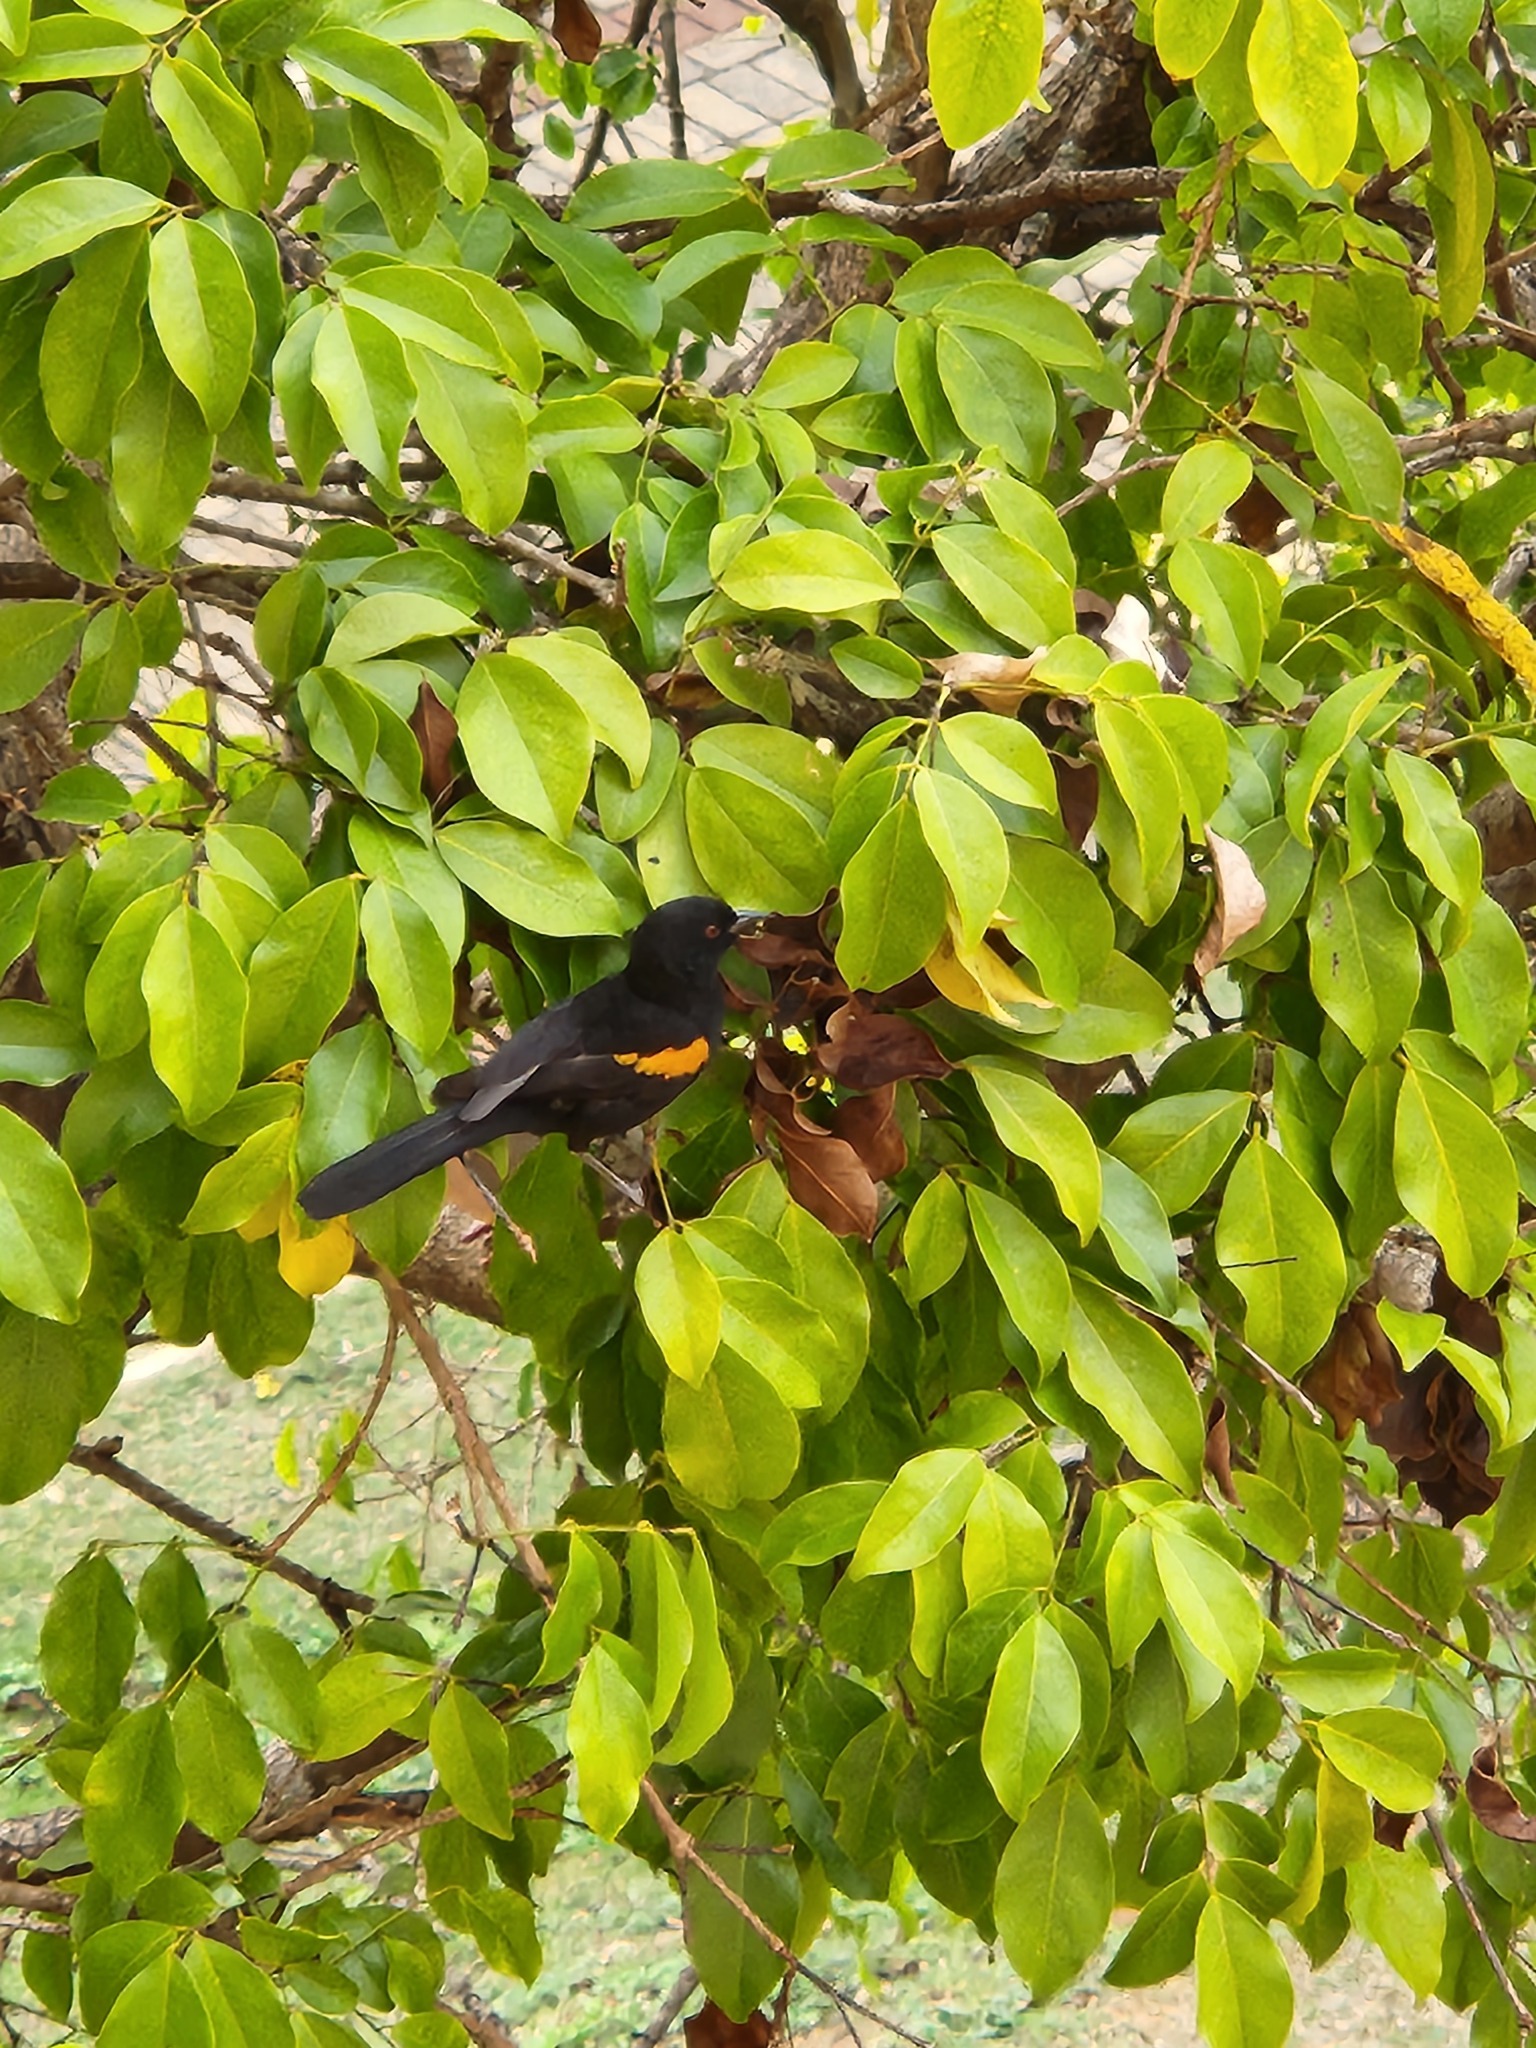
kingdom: Animalia
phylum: Chordata
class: Aves
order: Passeriformes
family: Icteridae
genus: Icterus
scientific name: Icterus cayanensis
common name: Epaulet oriole
